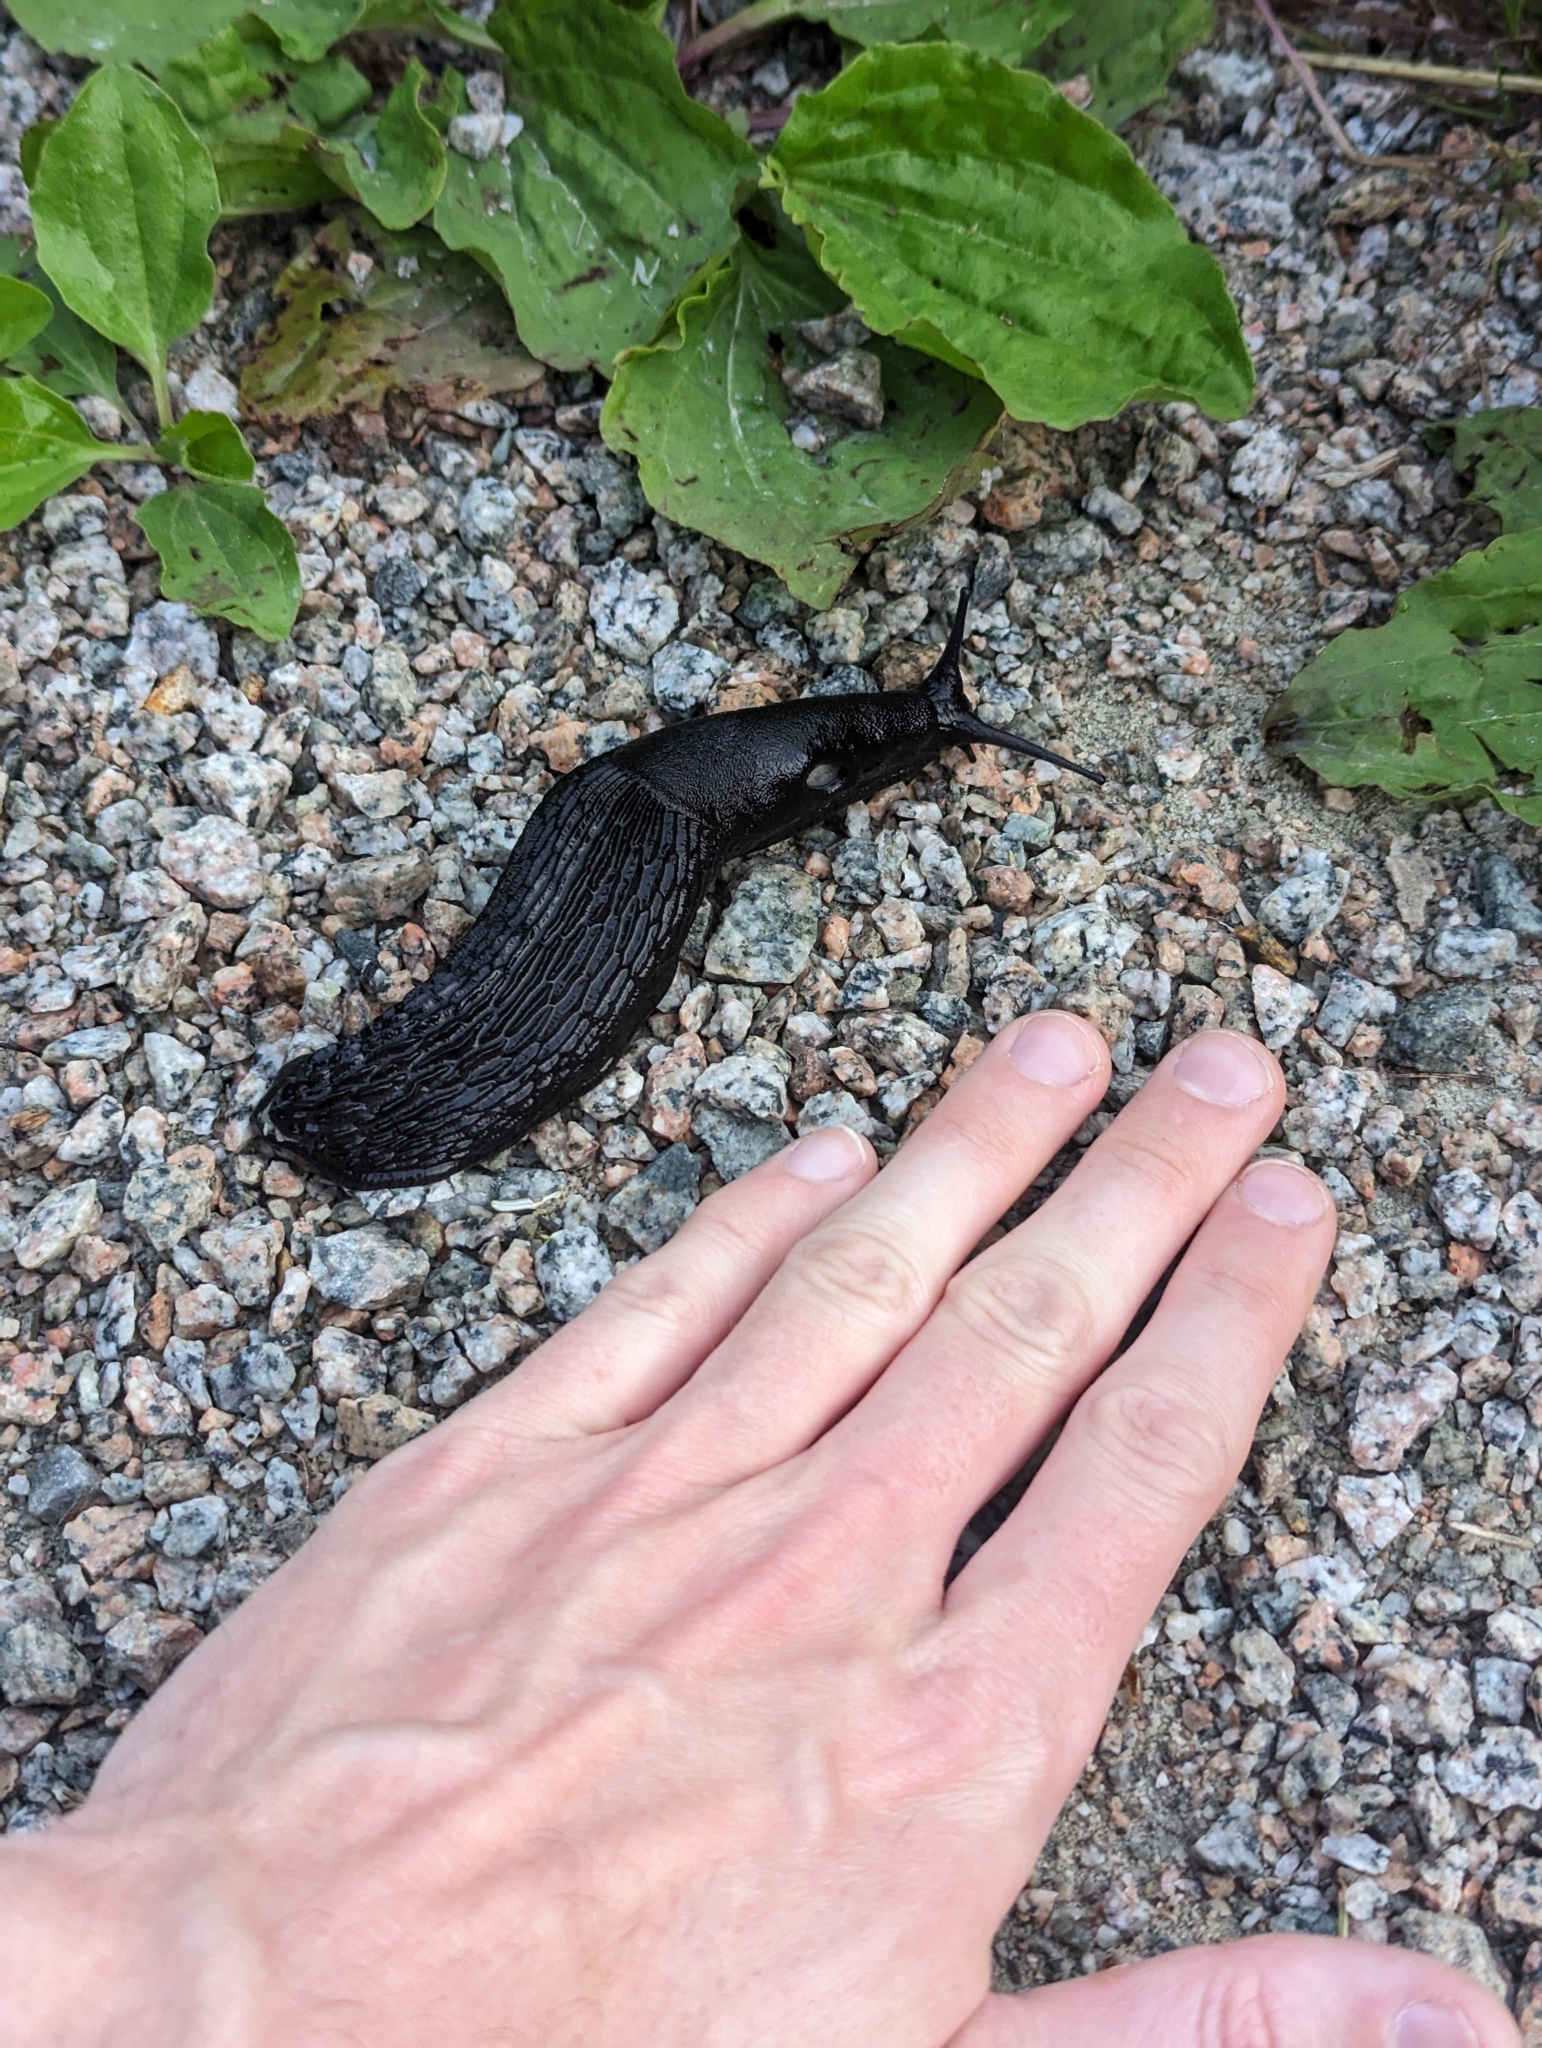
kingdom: Animalia
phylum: Mollusca
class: Gastropoda
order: Stylommatophora
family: Arionidae
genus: Arion
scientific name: Arion
